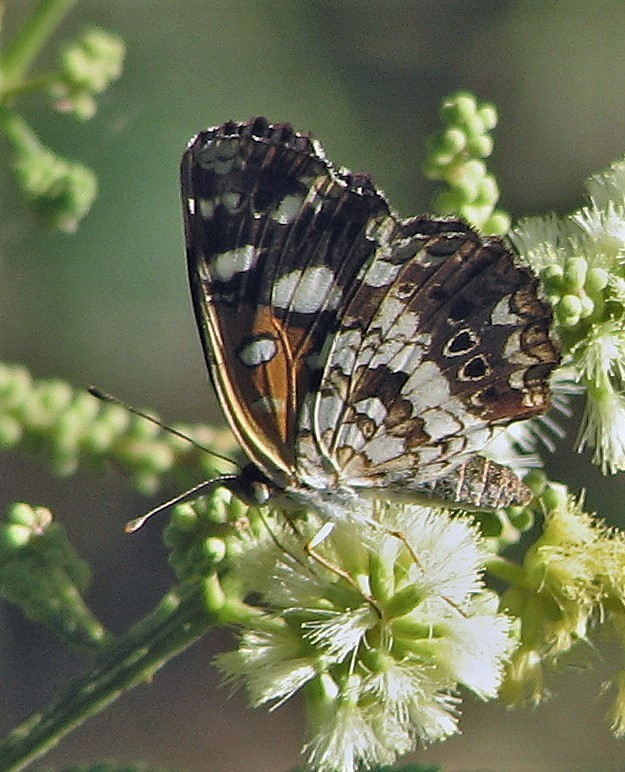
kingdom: Animalia
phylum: Arthropoda
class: Insecta
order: Lepidoptera
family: Nymphalidae
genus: Ortilia
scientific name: Ortilia ithra
